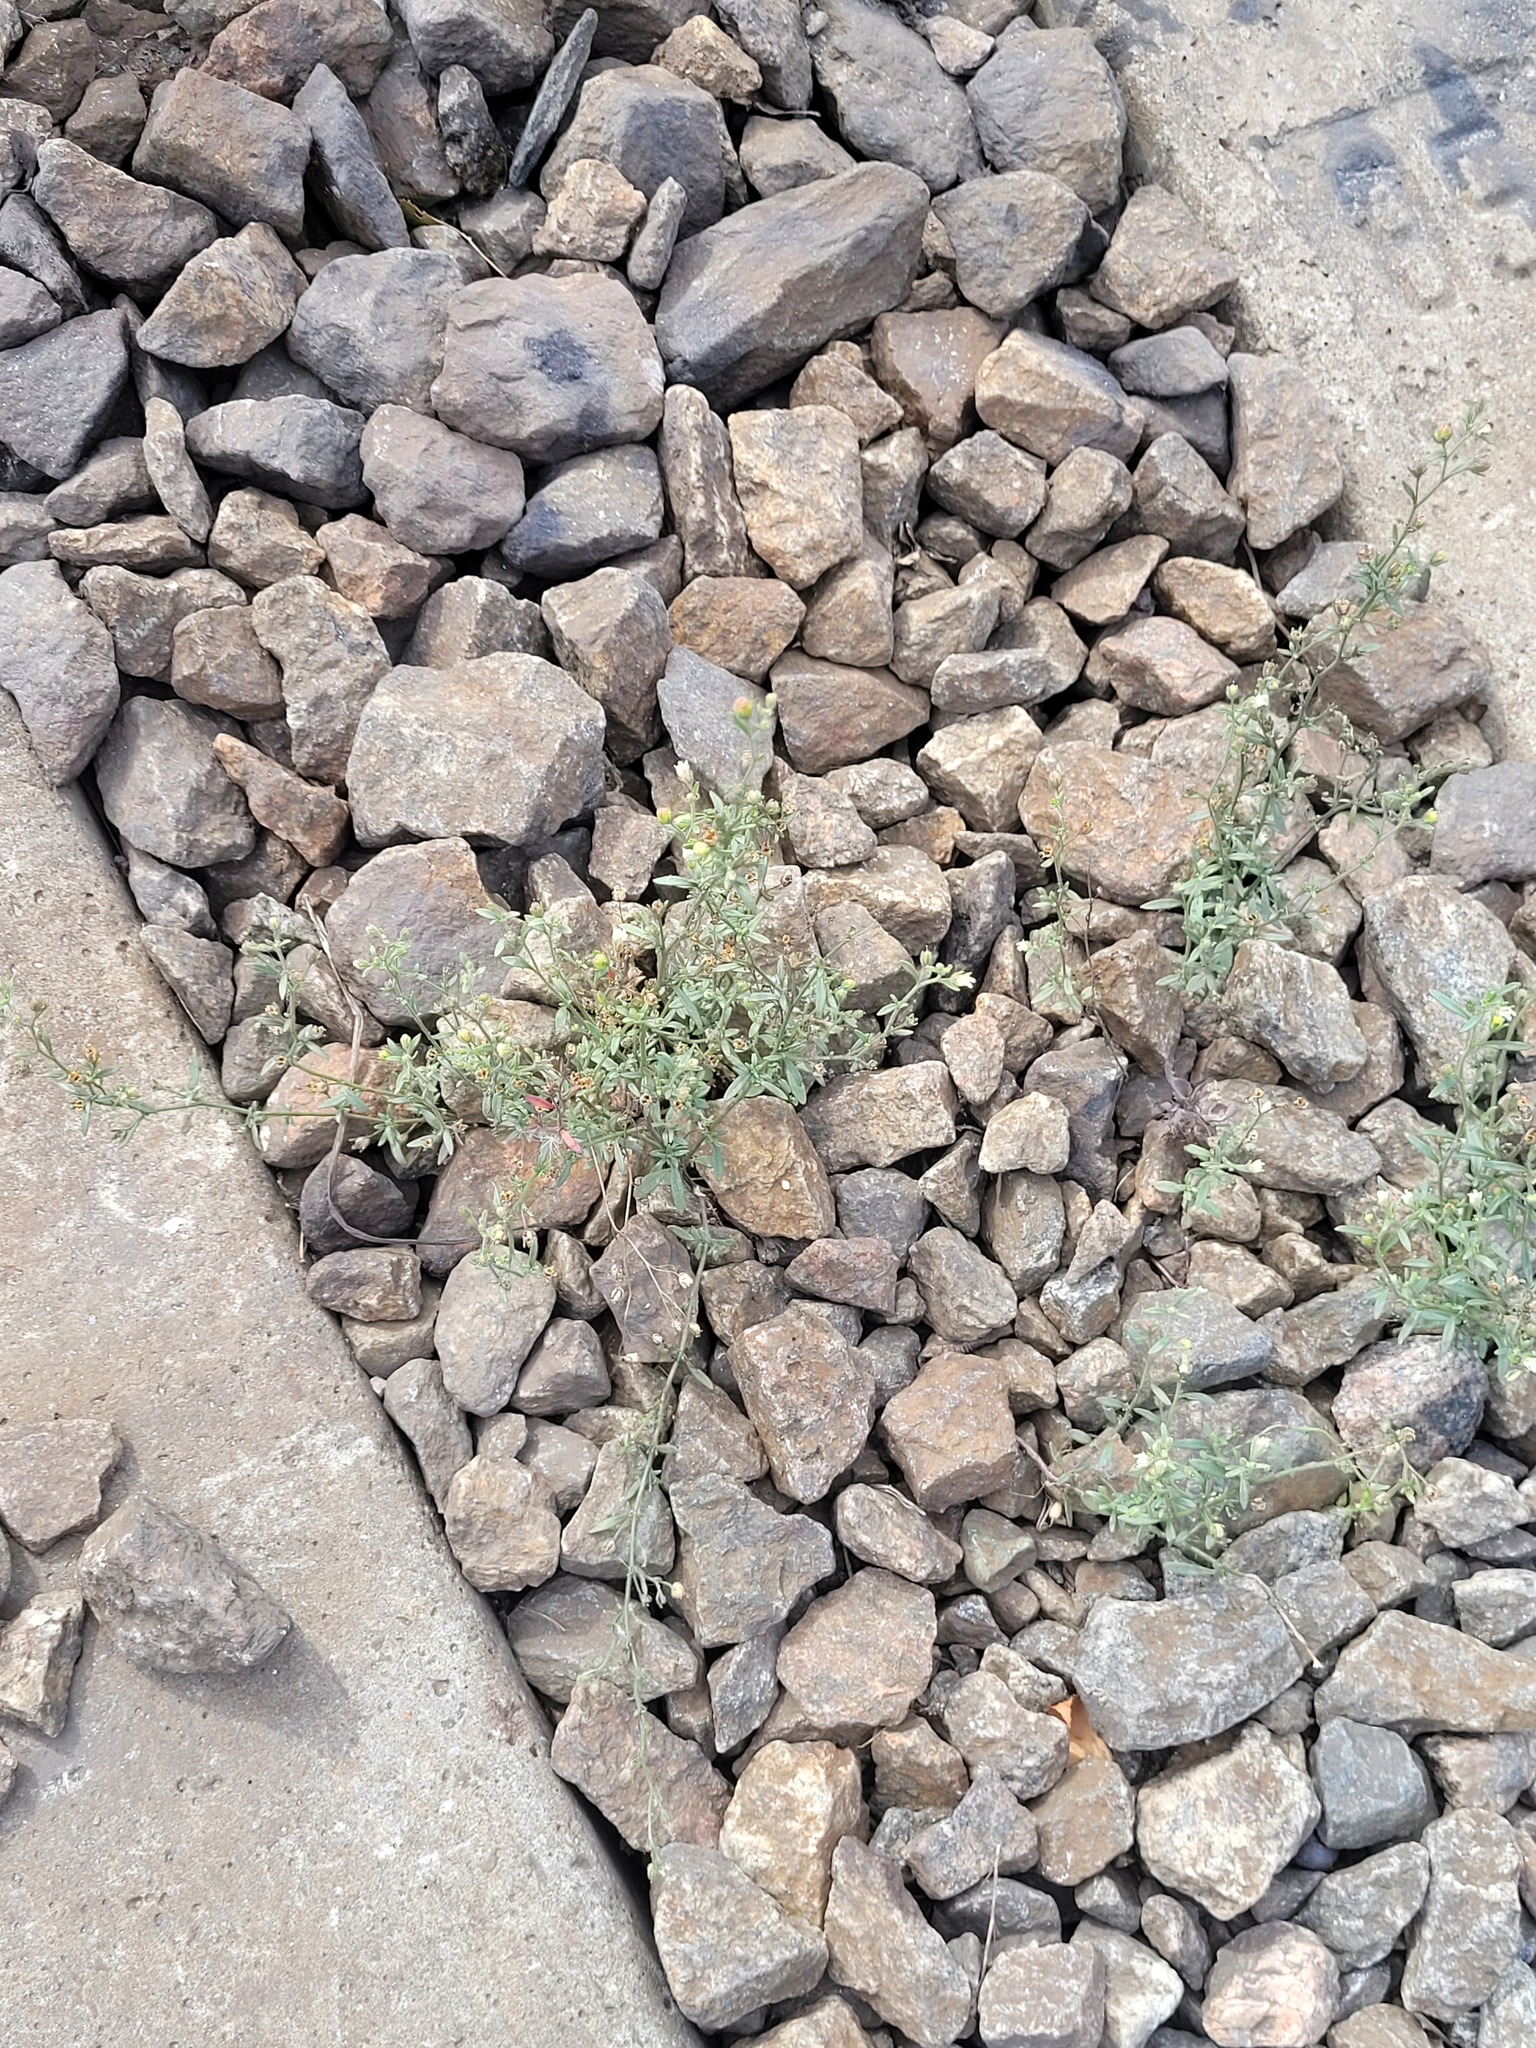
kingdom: Plantae
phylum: Tracheophyta
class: Magnoliopsida
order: Lamiales
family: Plantaginaceae
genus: Chaenorhinum
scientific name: Chaenorhinum minus
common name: Dwarf snapdragon
